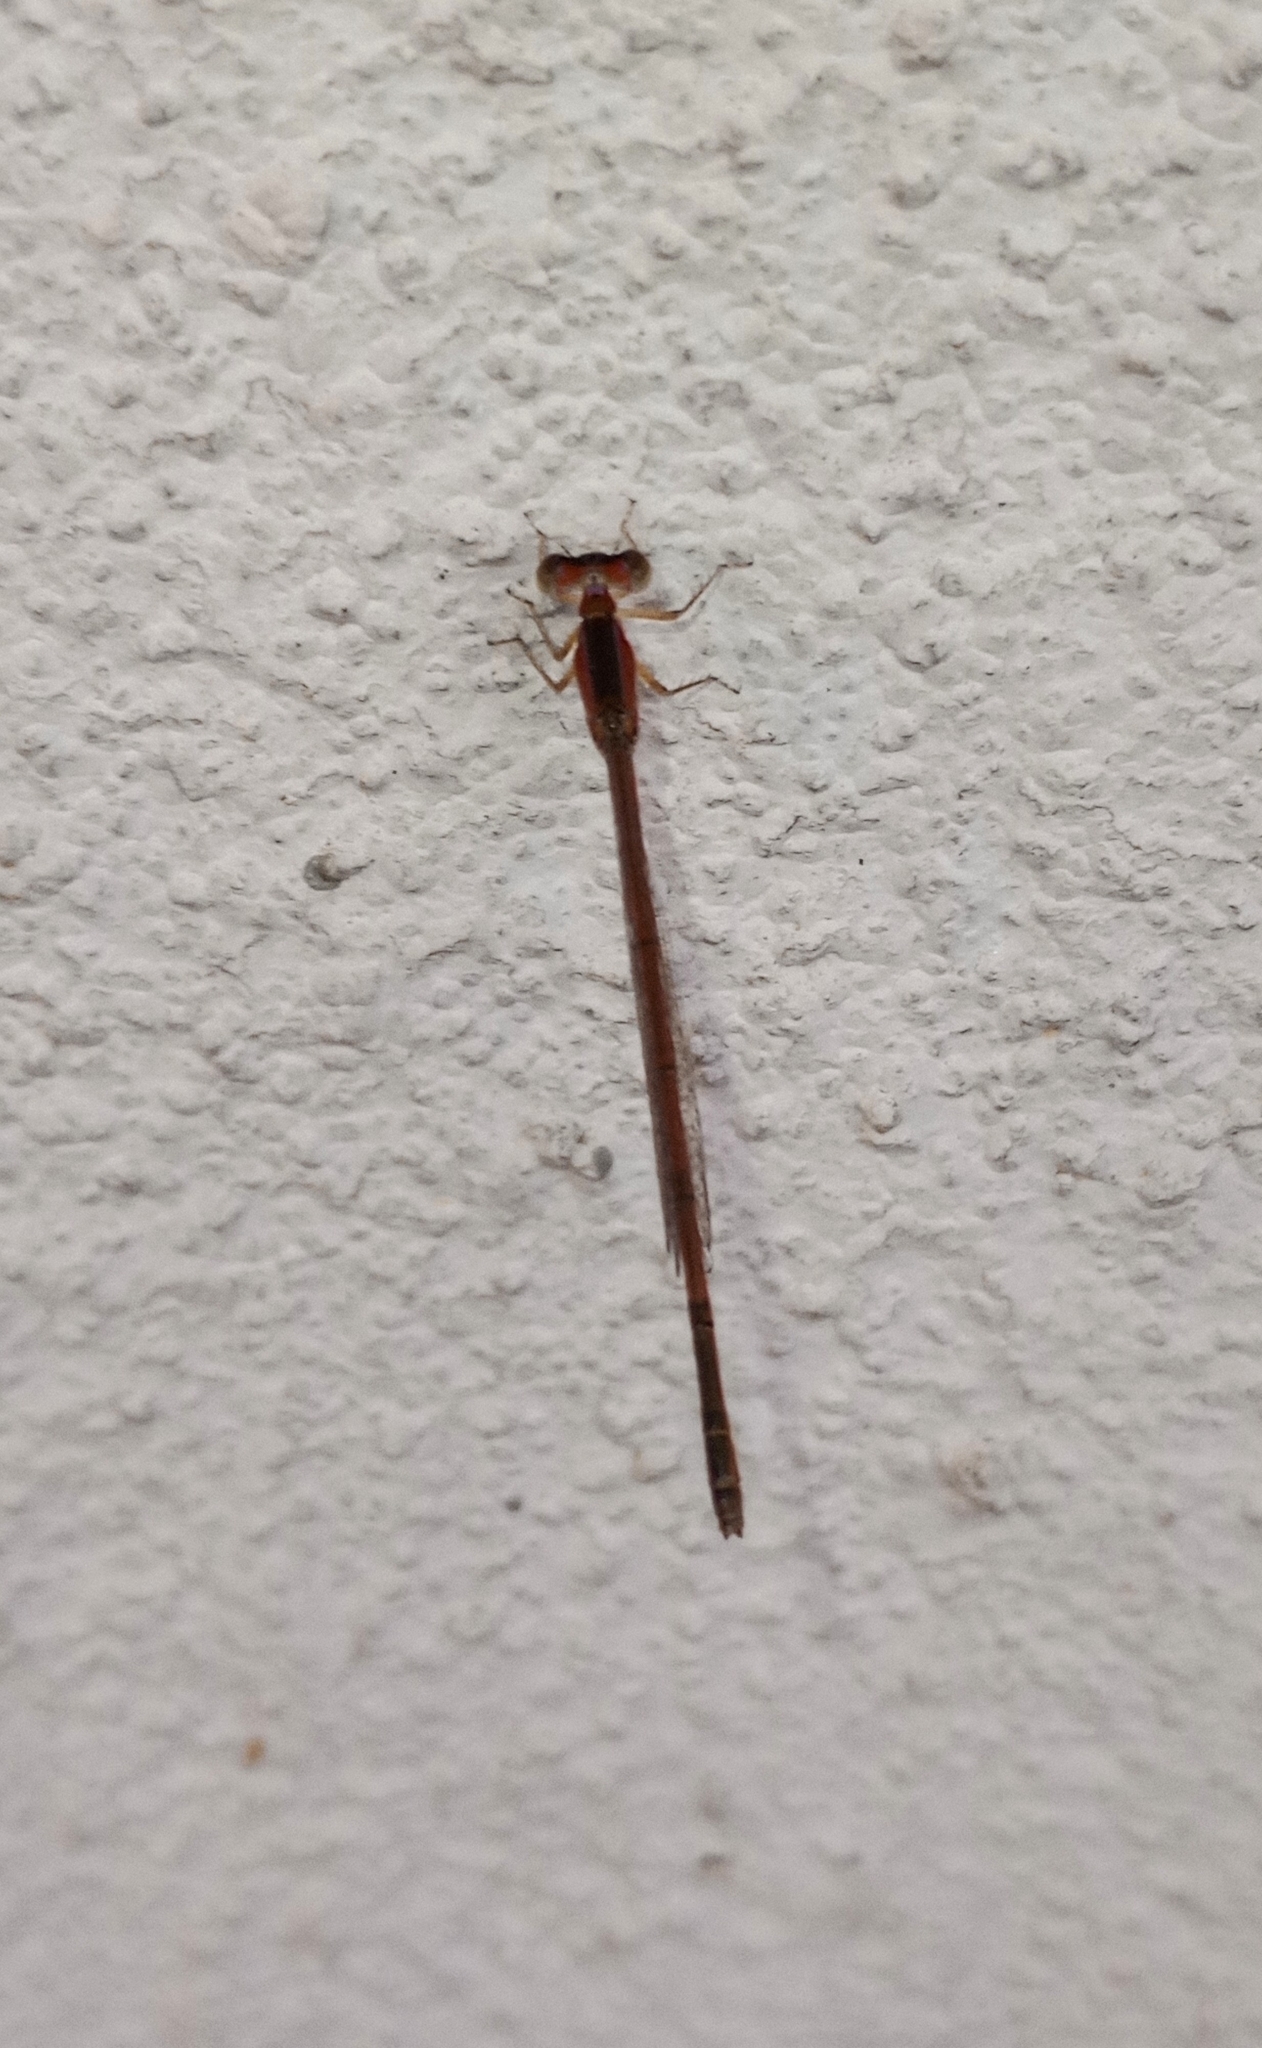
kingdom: Animalia
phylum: Arthropoda
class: Insecta
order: Odonata
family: Coenagrionidae
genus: Agriocnemis
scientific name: Agriocnemis pygmaea
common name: Pygmy wisp
